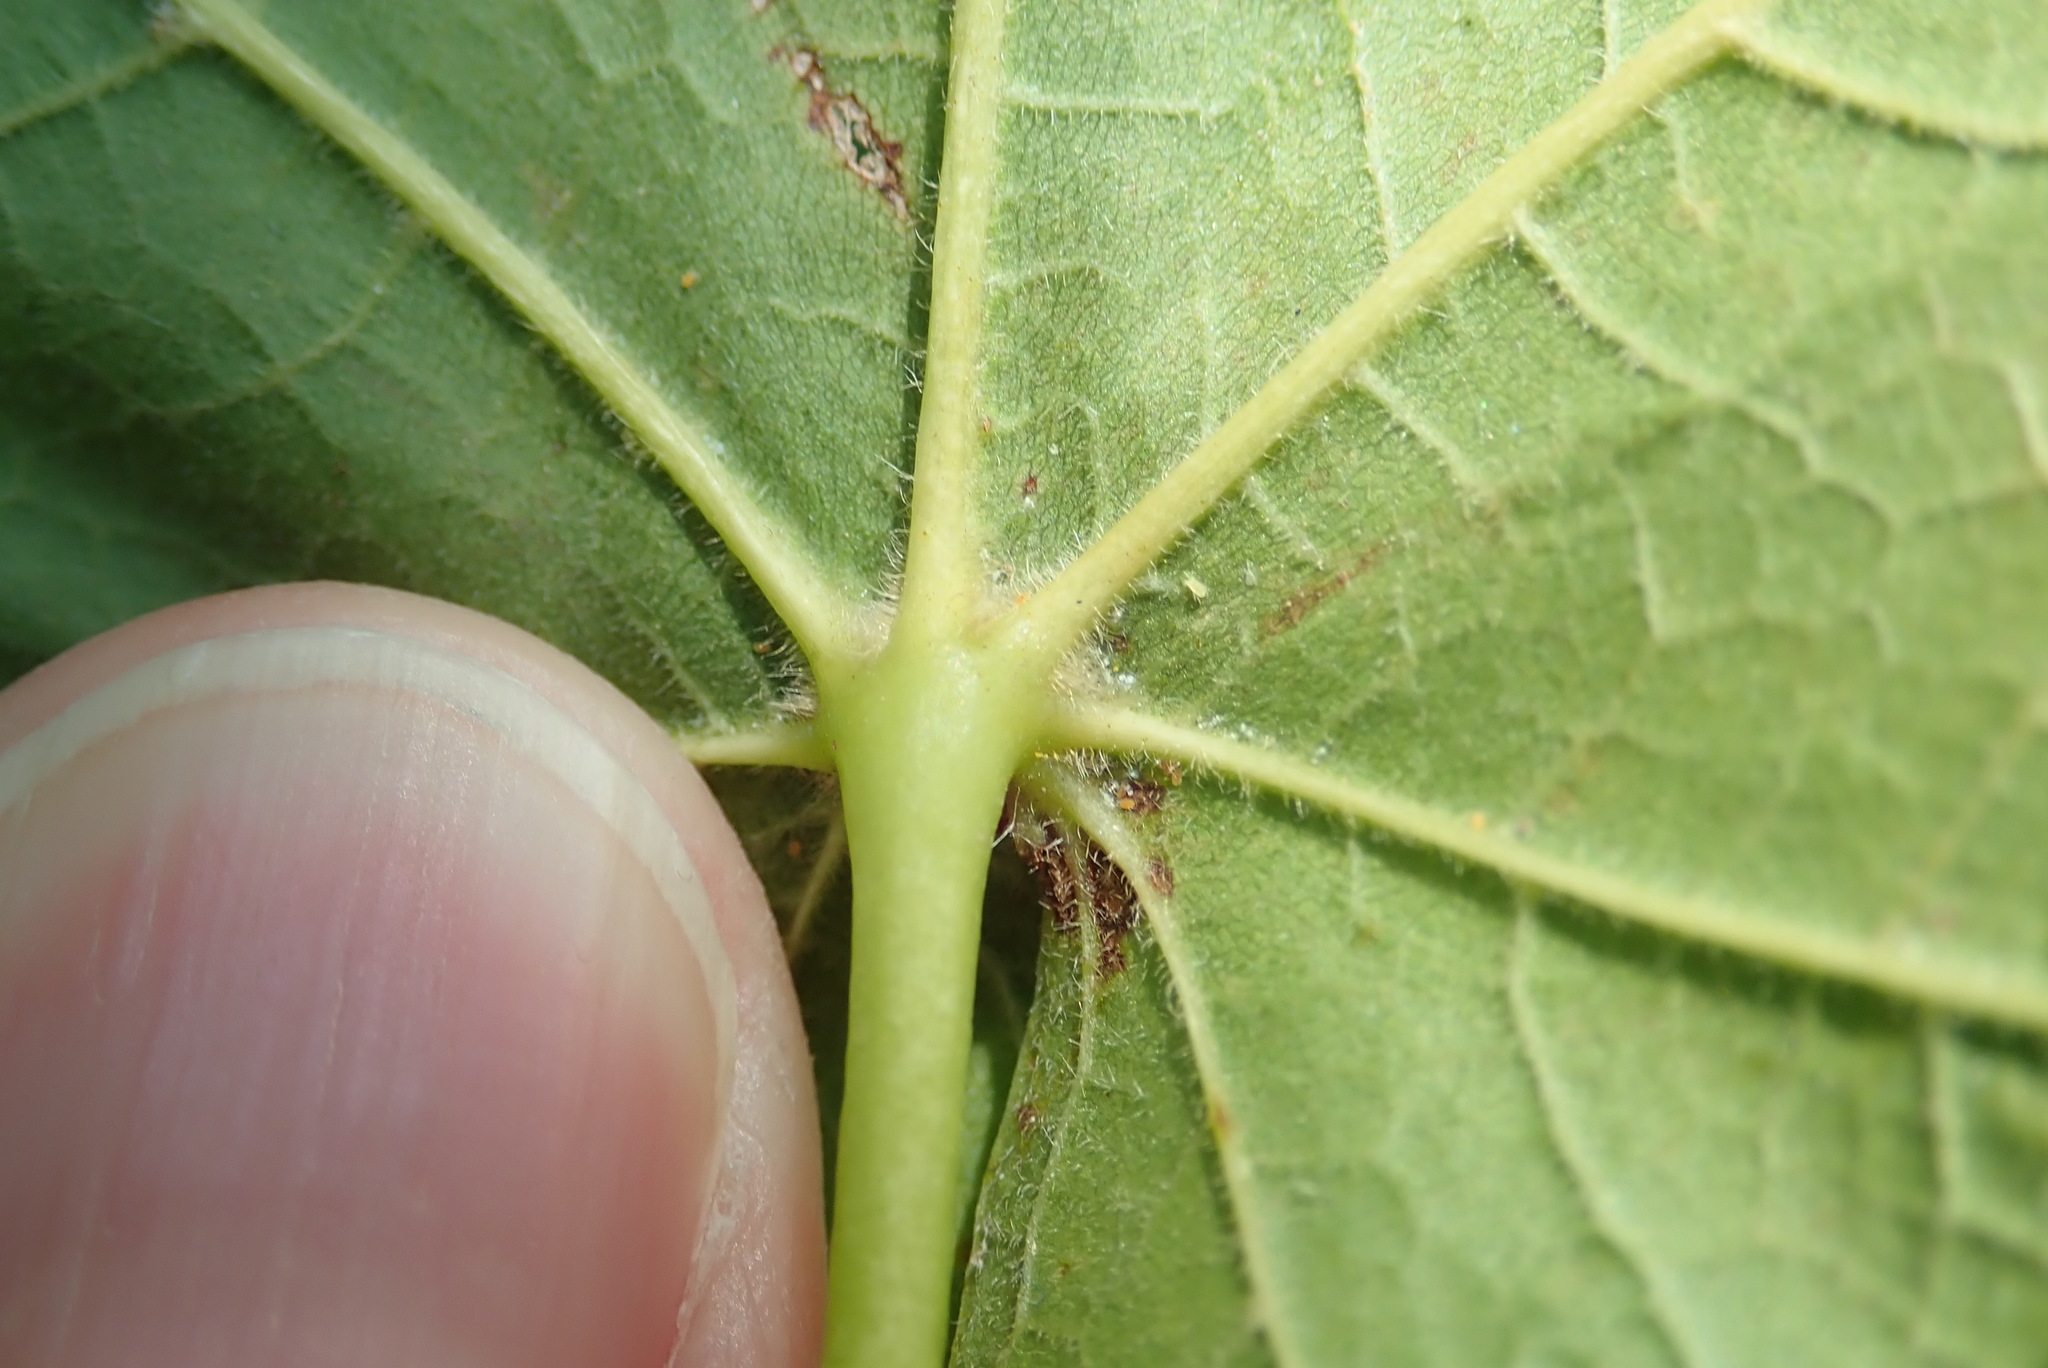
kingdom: Plantae
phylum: Tracheophyta
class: Magnoliopsida
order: Sapindales
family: Sapindaceae
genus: Acer
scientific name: Acer nigrum
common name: Black maple
